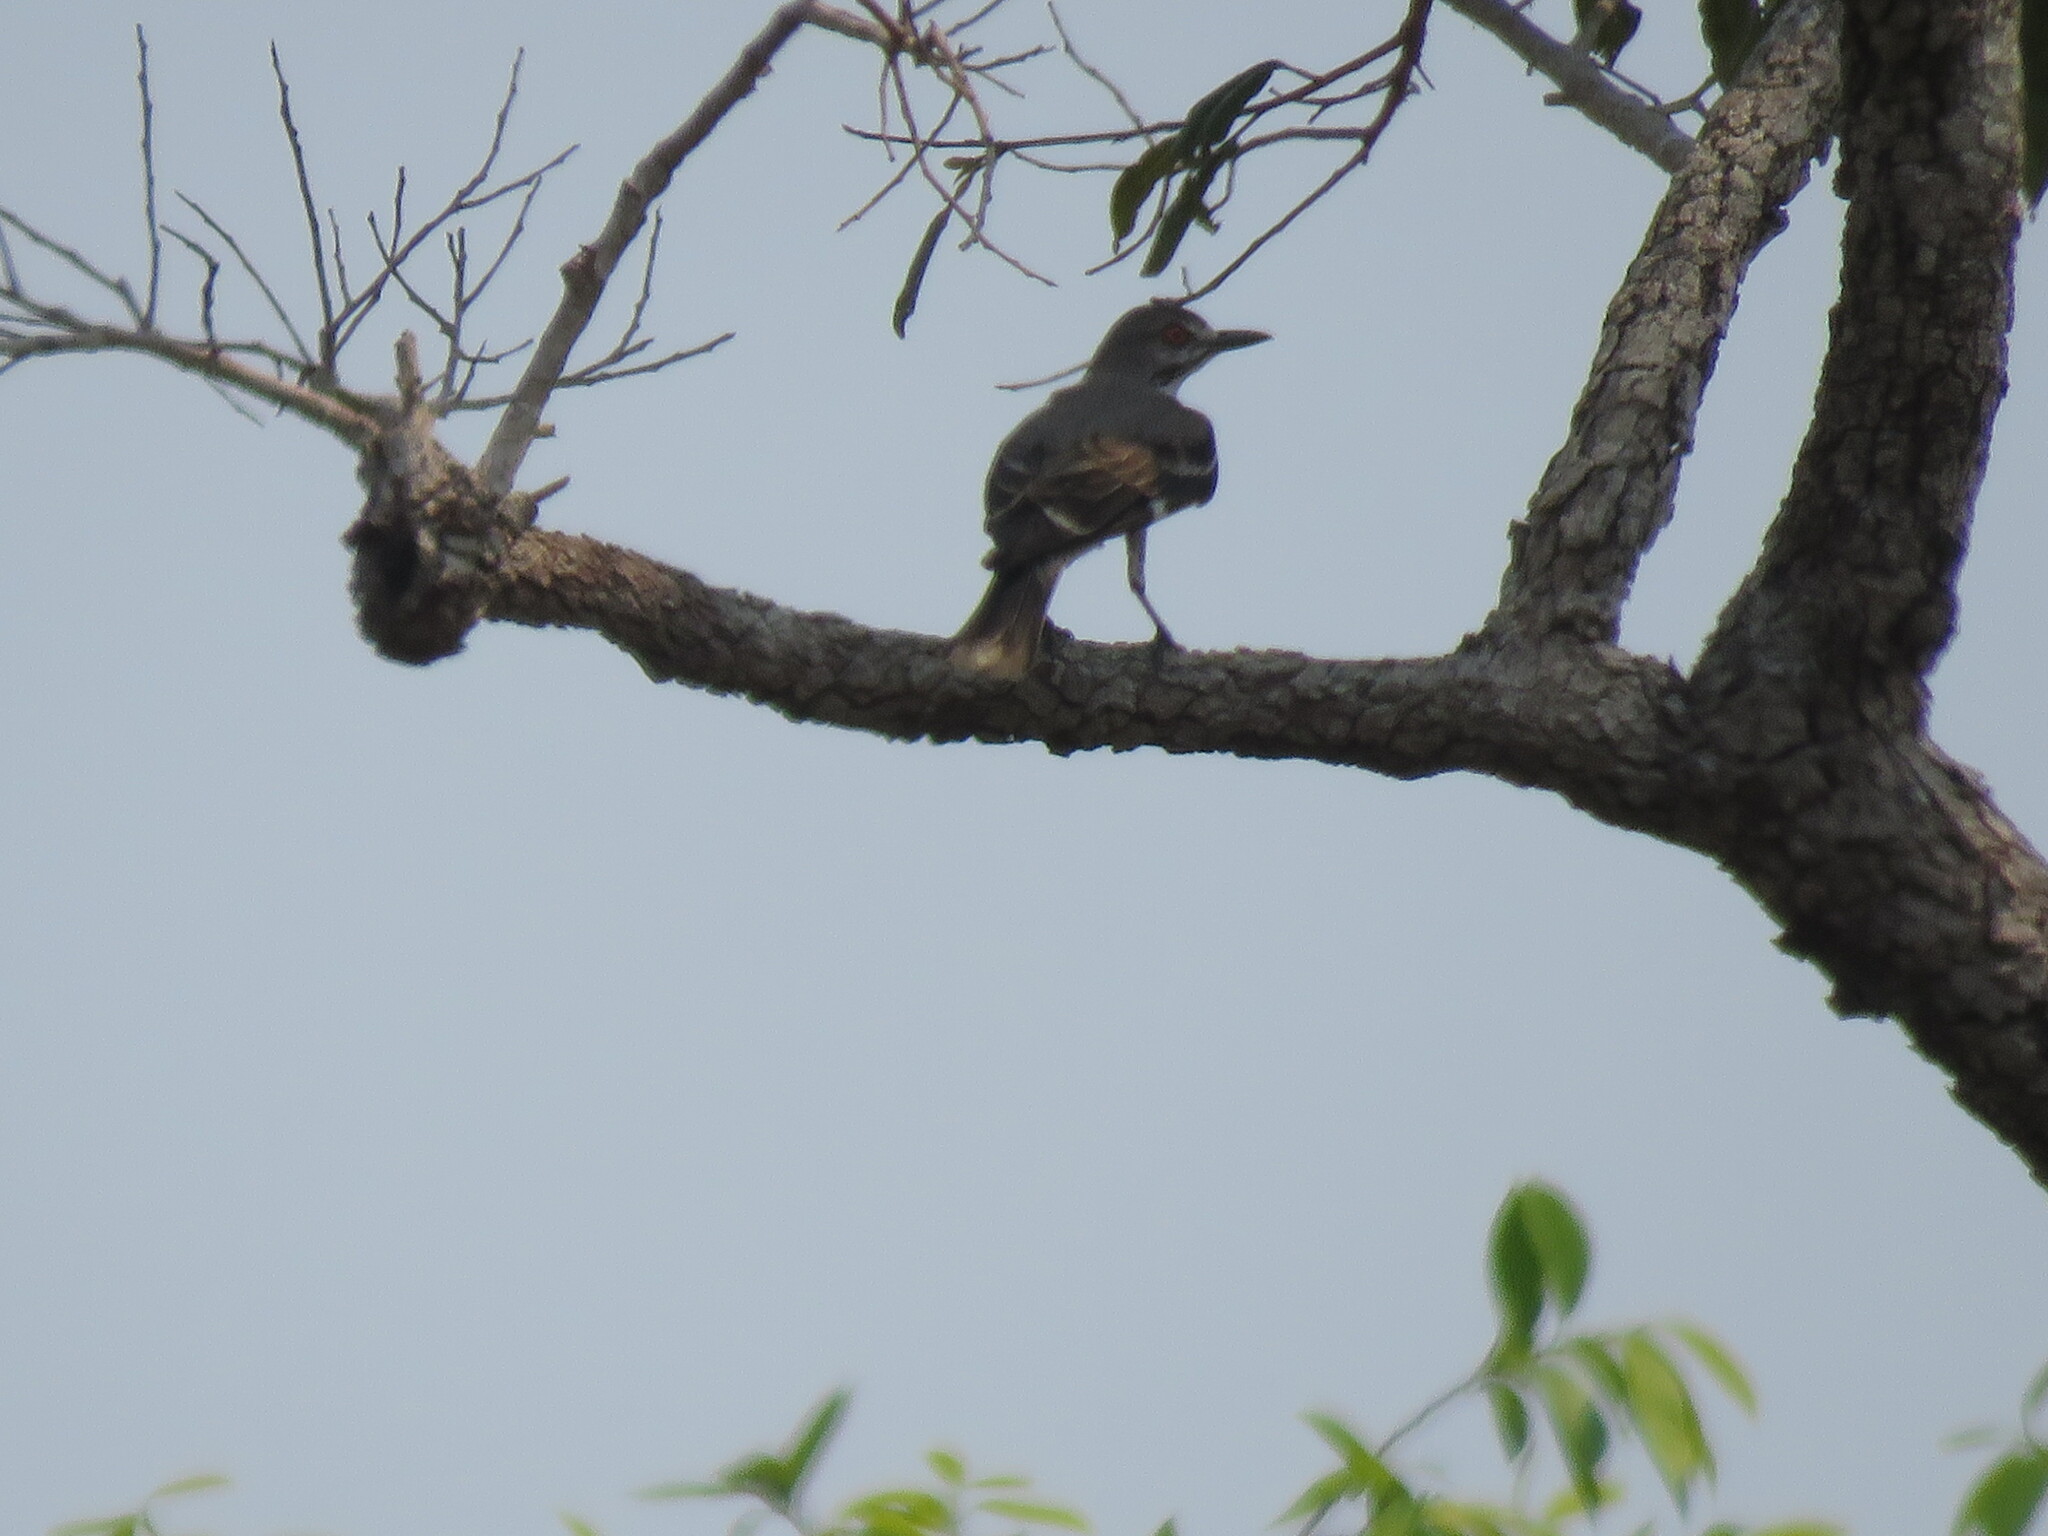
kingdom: Animalia
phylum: Chordata
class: Aves
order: Passeriformes
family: Tyrannidae
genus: Xolmis
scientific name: Xolmis cinereus
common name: Grey monjita
